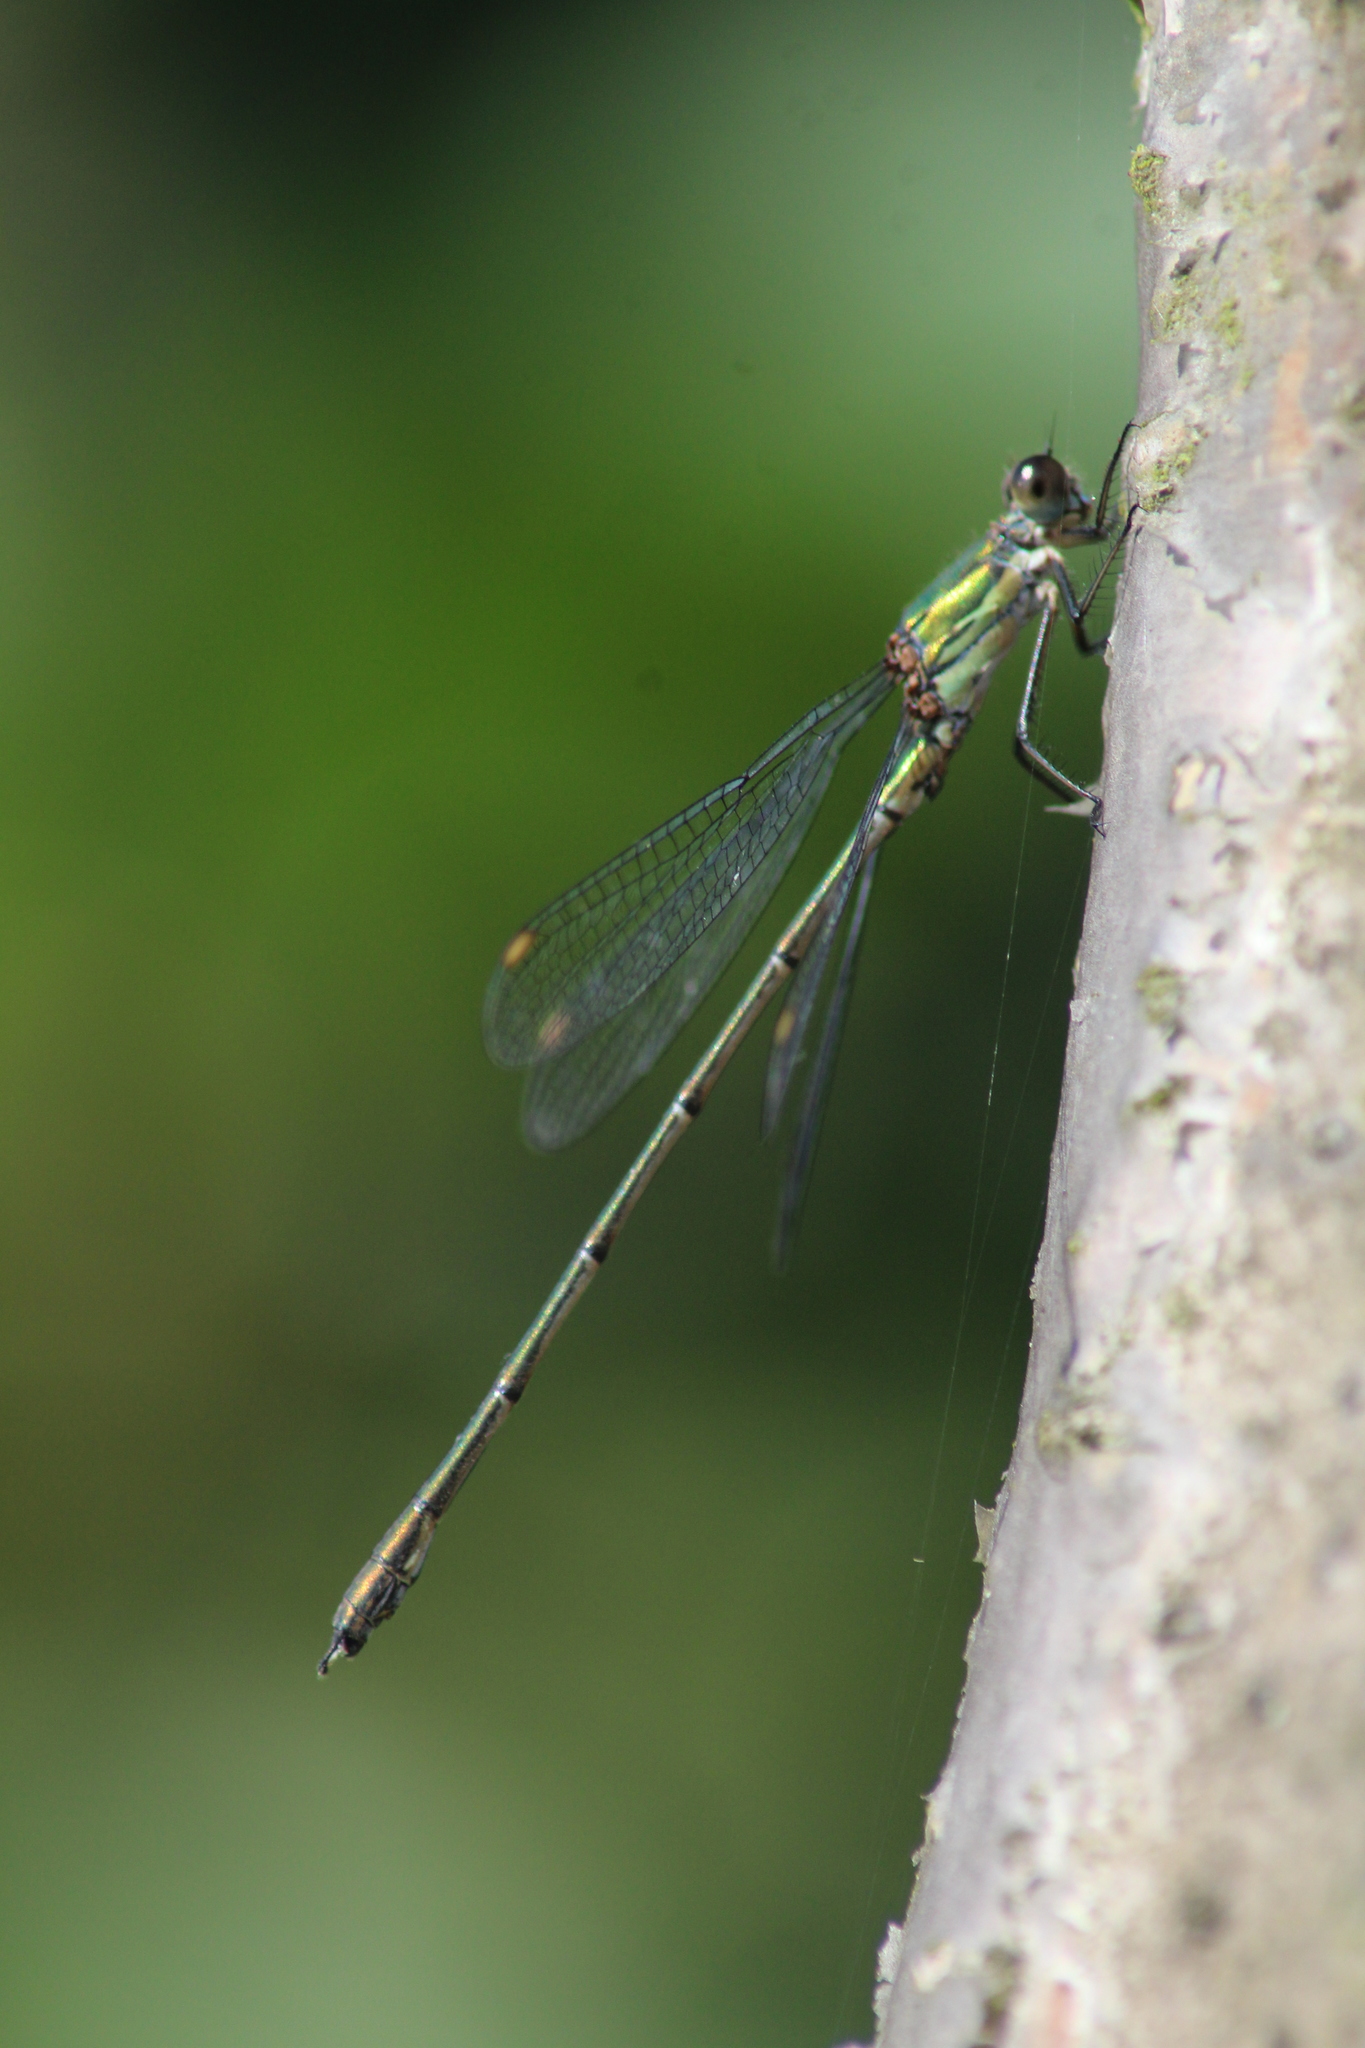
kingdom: Animalia
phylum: Arthropoda
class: Insecta
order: Odonata
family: Lestidae
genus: Chalcolestes
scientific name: Chalcolestes viridis
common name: Green emerald damselfly
